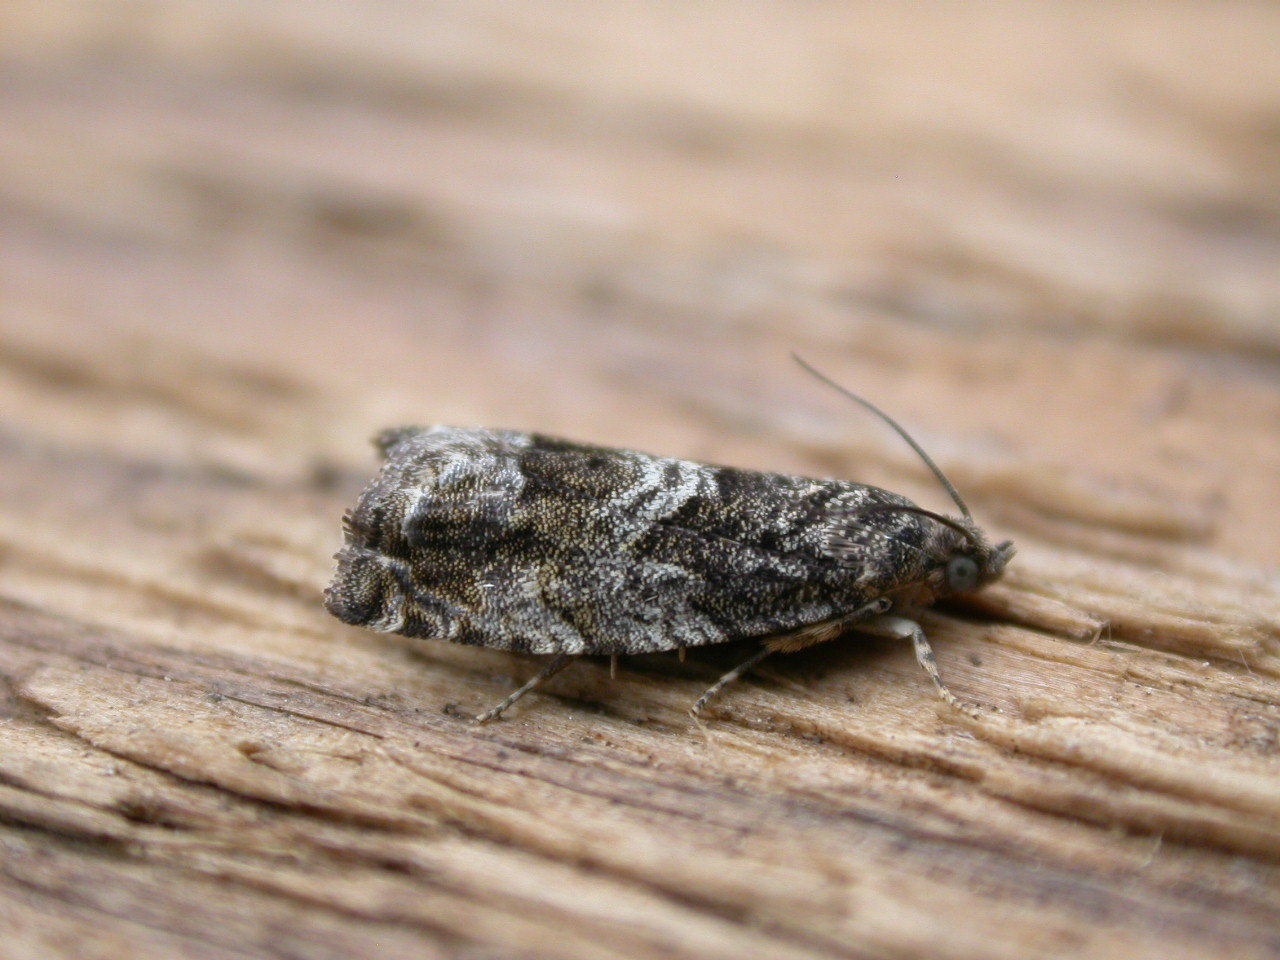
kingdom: Animalia
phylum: Arthropoda
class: Insecta
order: Lepidoptera
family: Tortricidae
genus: Cydia
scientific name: Cydia fagiglandana
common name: Large beech piercer
